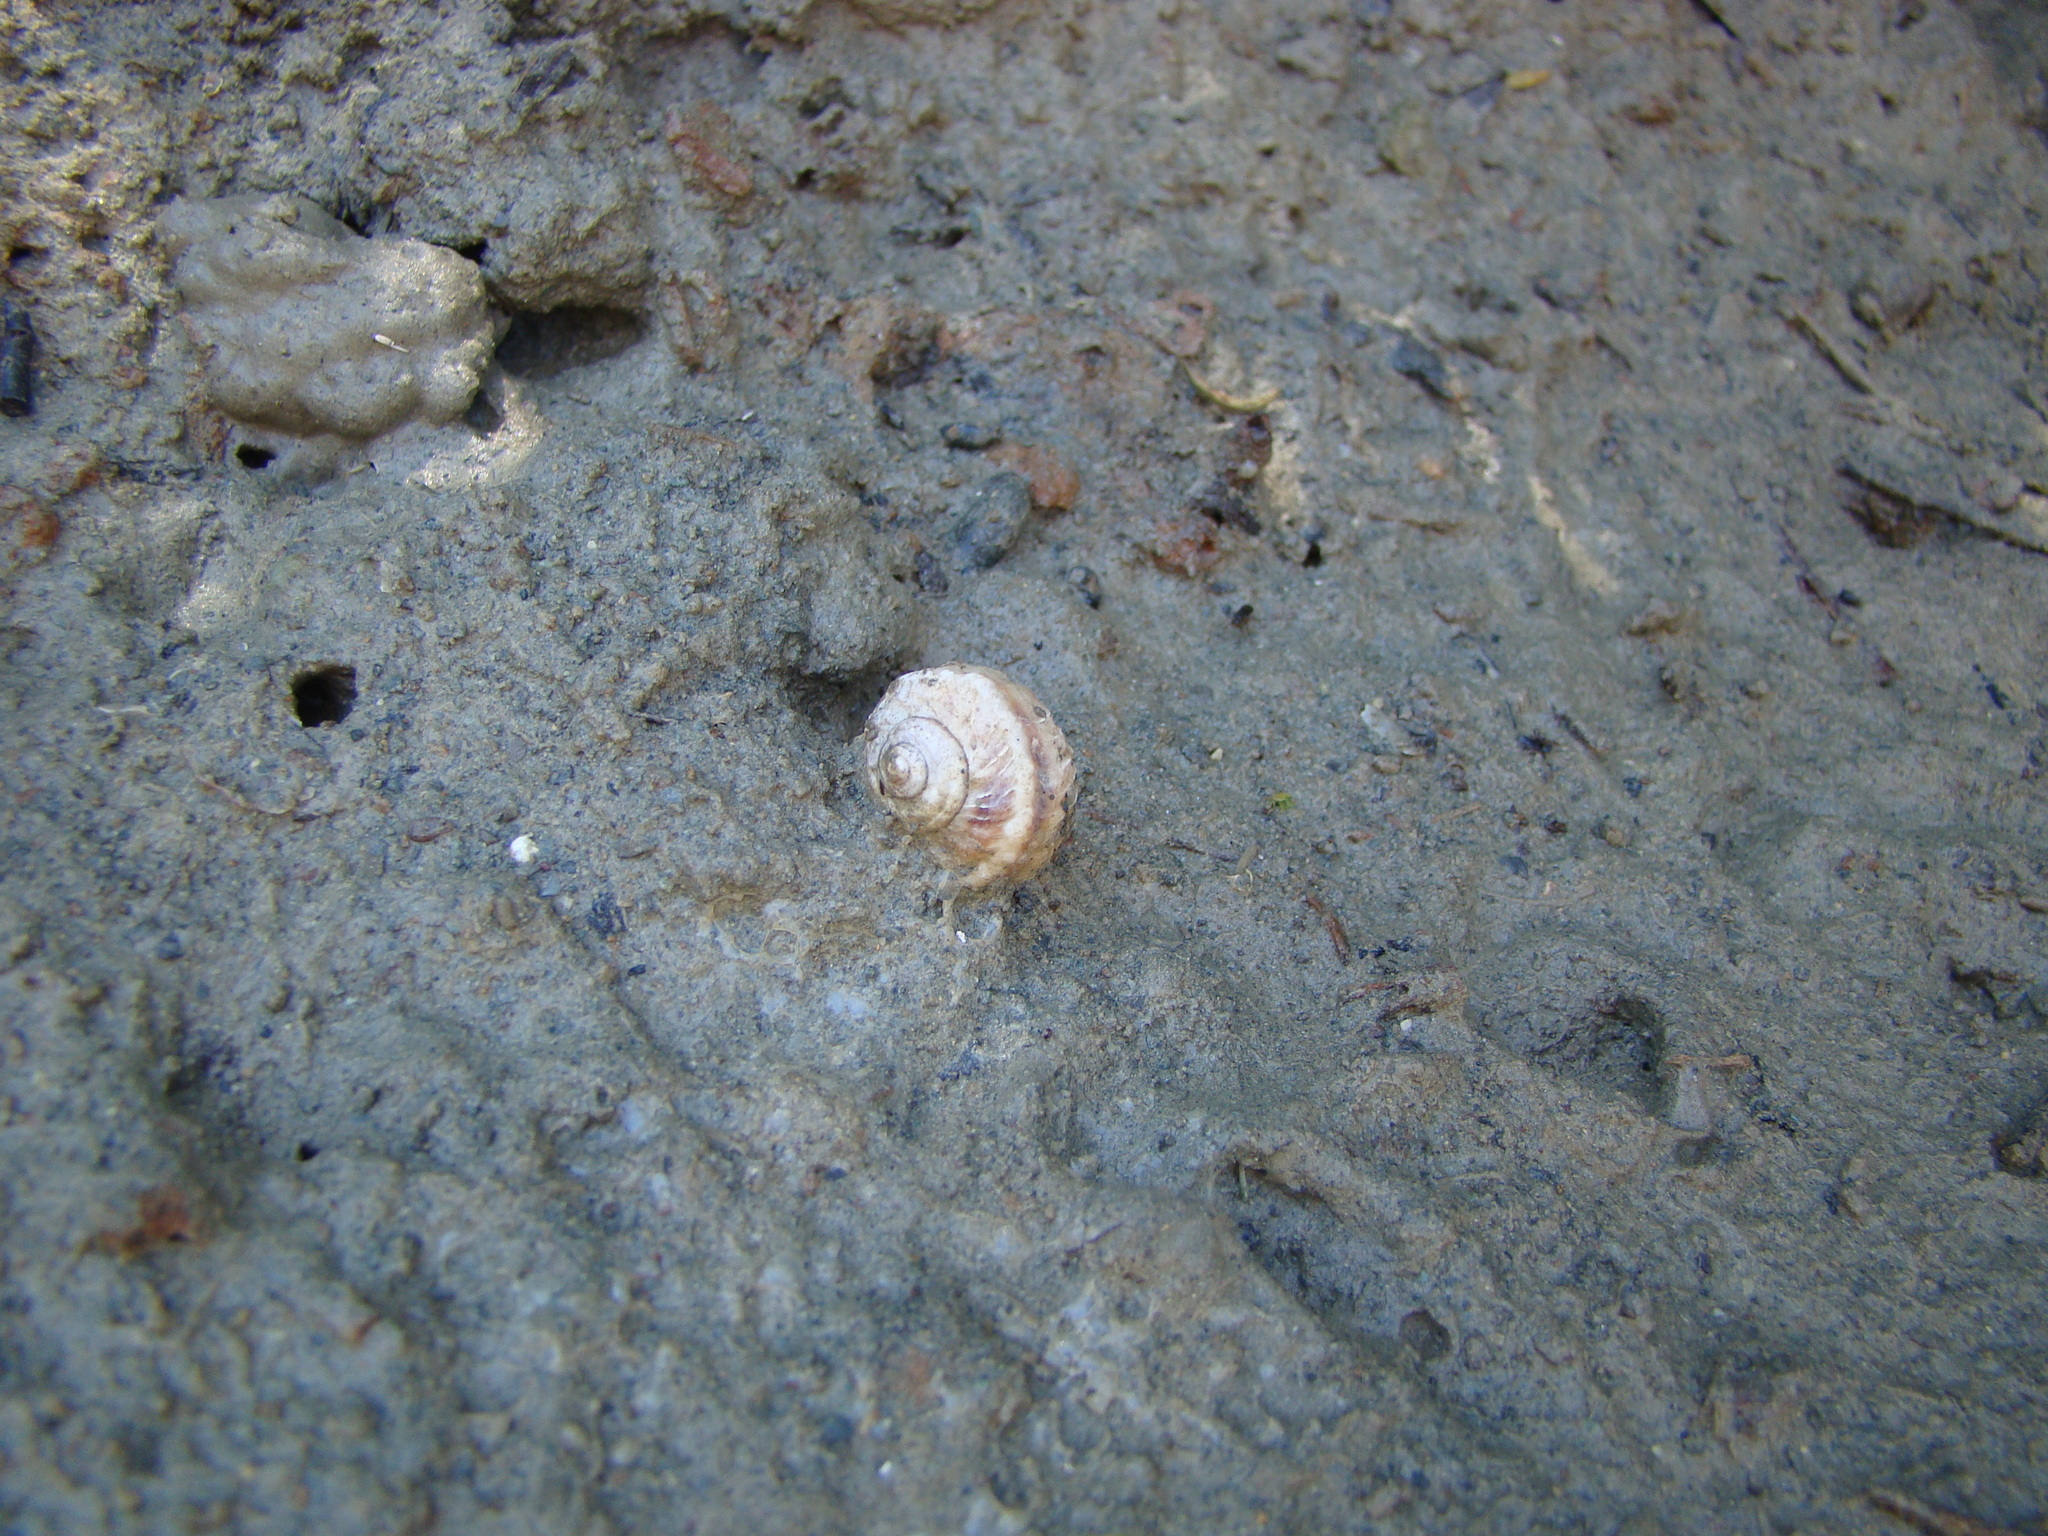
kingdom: Animalia
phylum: Mollusca
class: Gastropoda
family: Amphibolidae
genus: Amphibola
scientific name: Amphibola crenata
